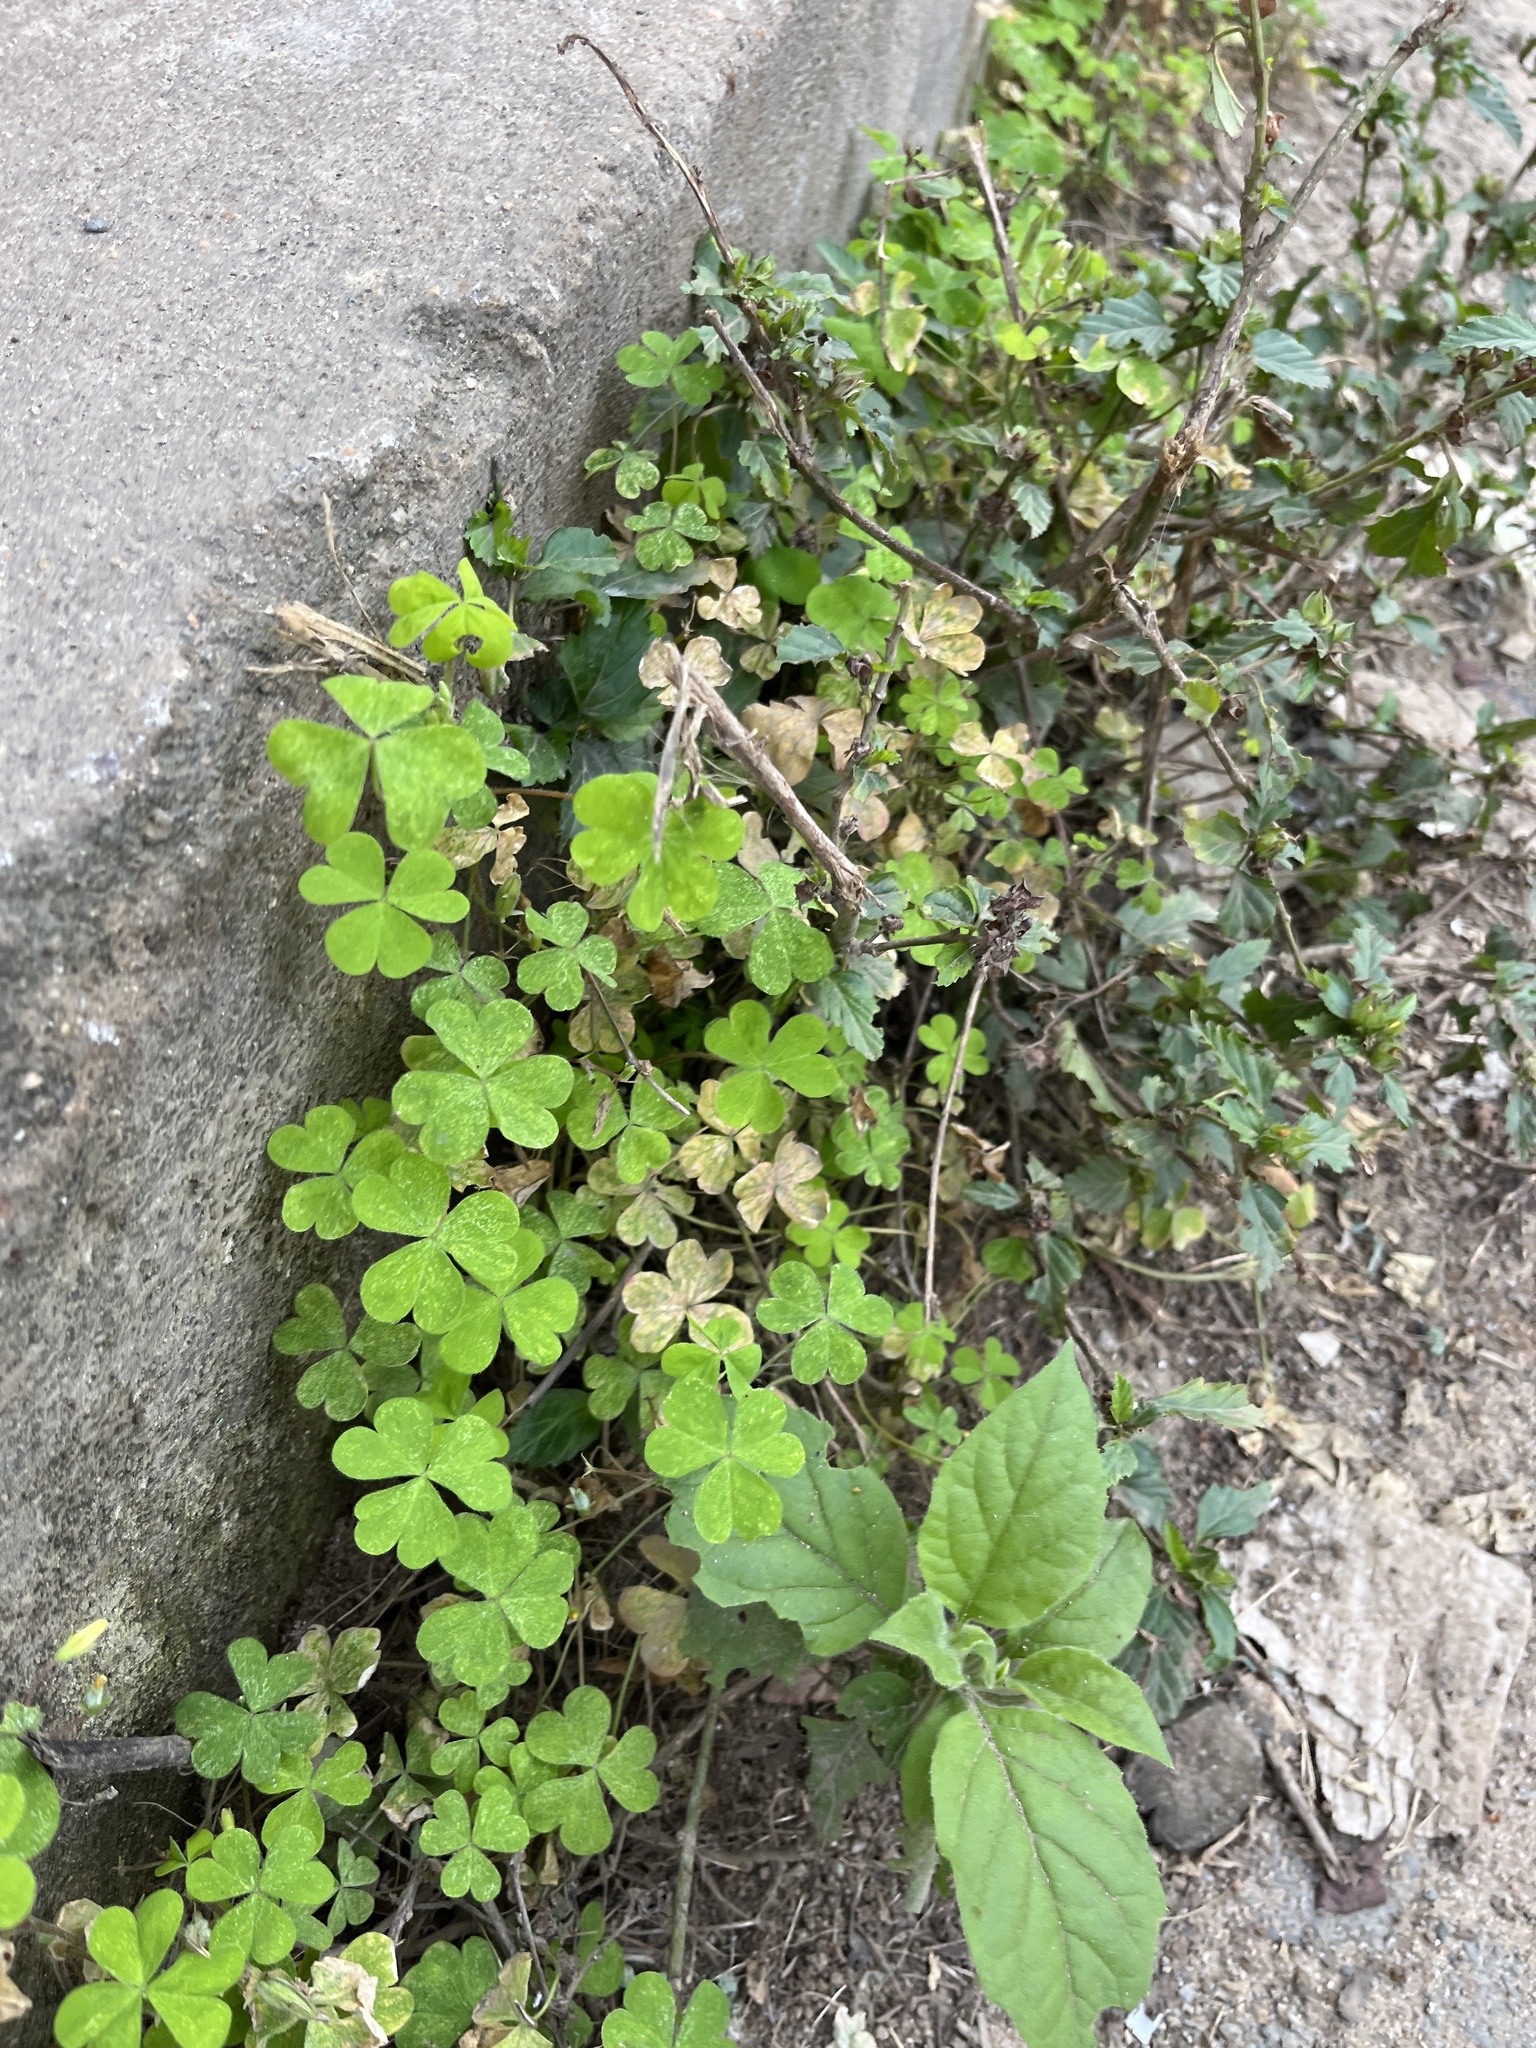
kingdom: Plantae
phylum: Tracheophyta
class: Magnoliopsida
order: Oxalidales
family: Oxalidaceae
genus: Oxalis
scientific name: Oxalis corniculata
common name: Procumbent yellow-sorrel
